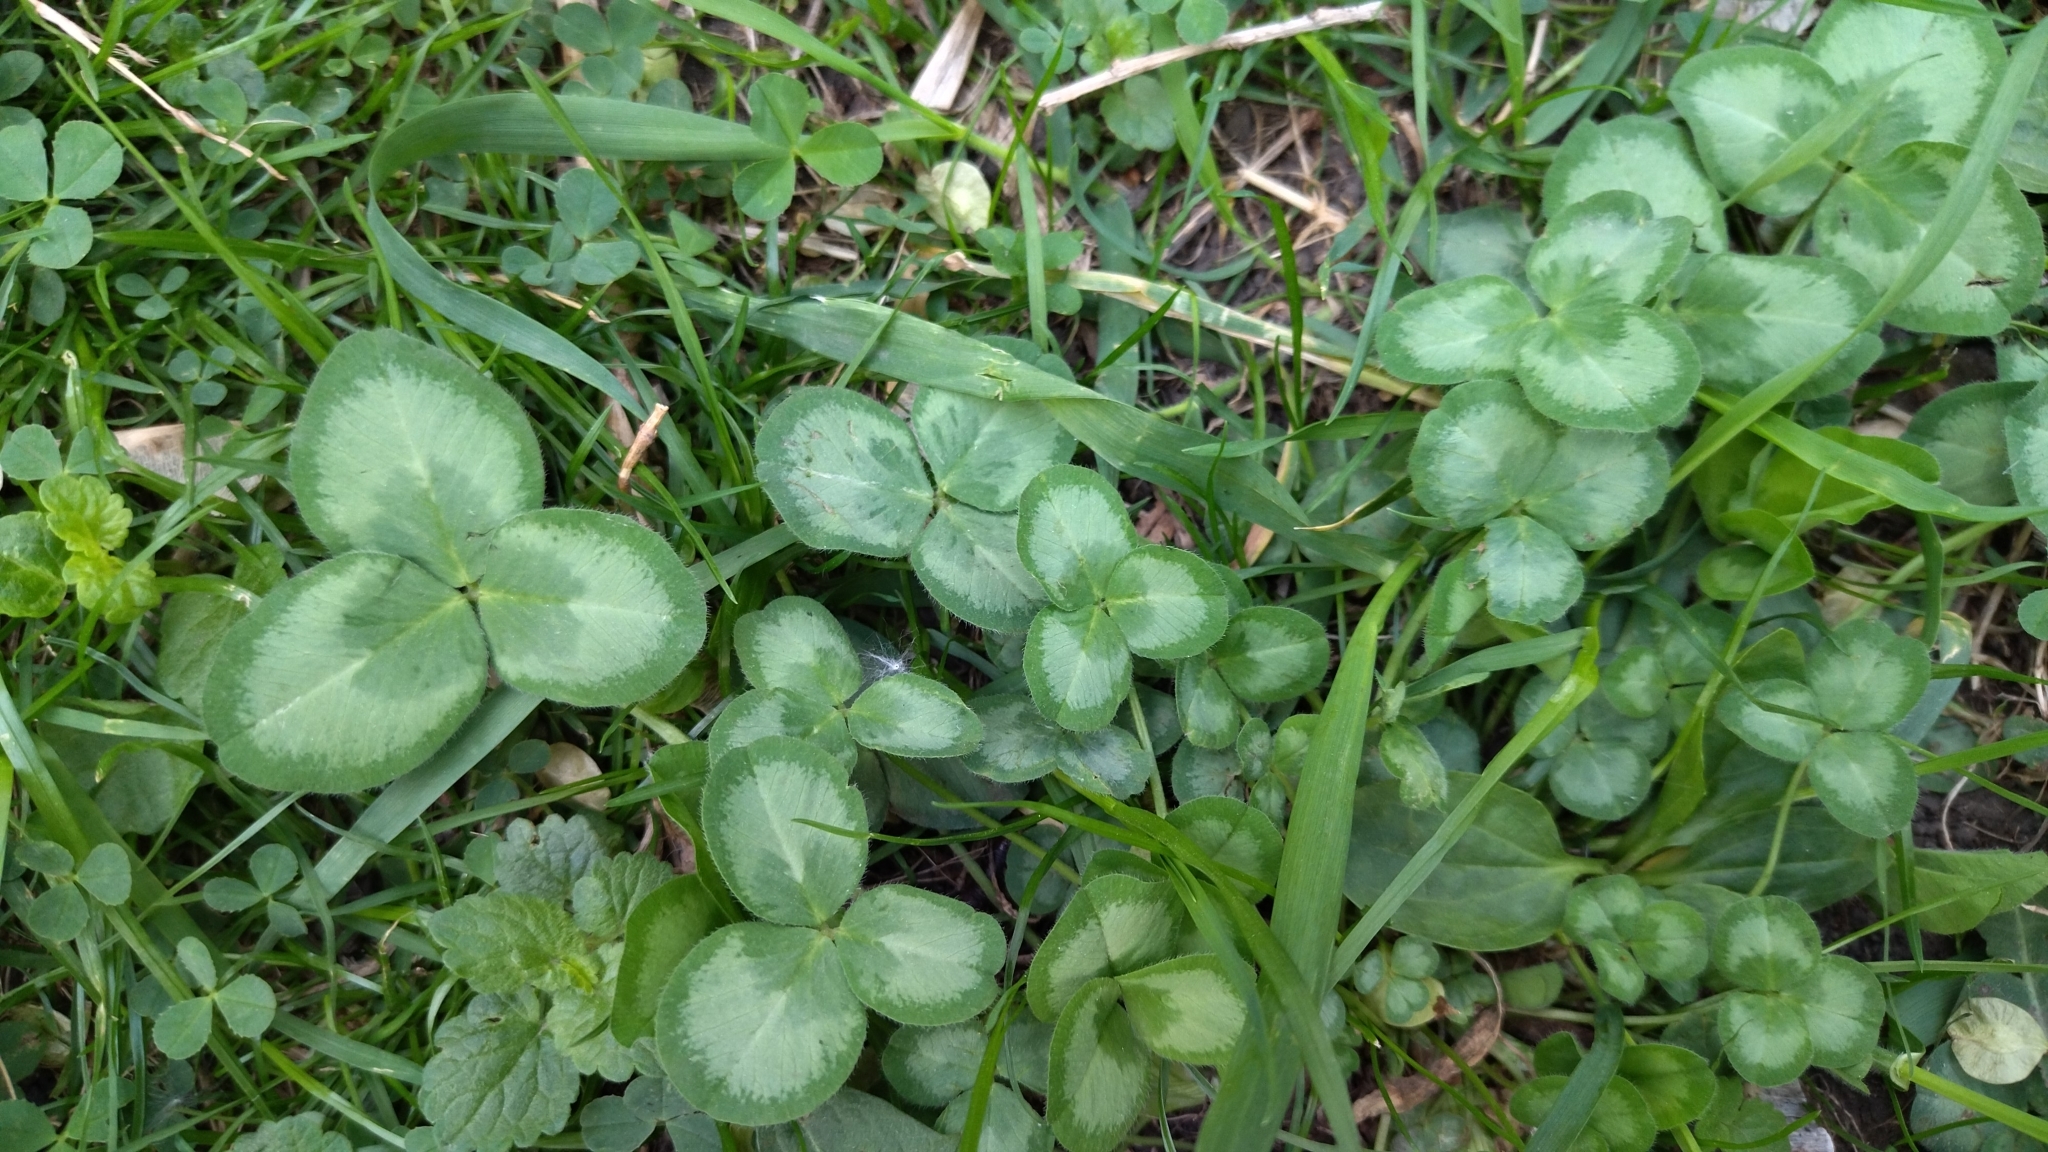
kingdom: Plantae
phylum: Tracheophyta
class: Magnoliopsida
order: Fabales
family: Fabaceae
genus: Trifolium
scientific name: Trifolium pratense
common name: Red clover
